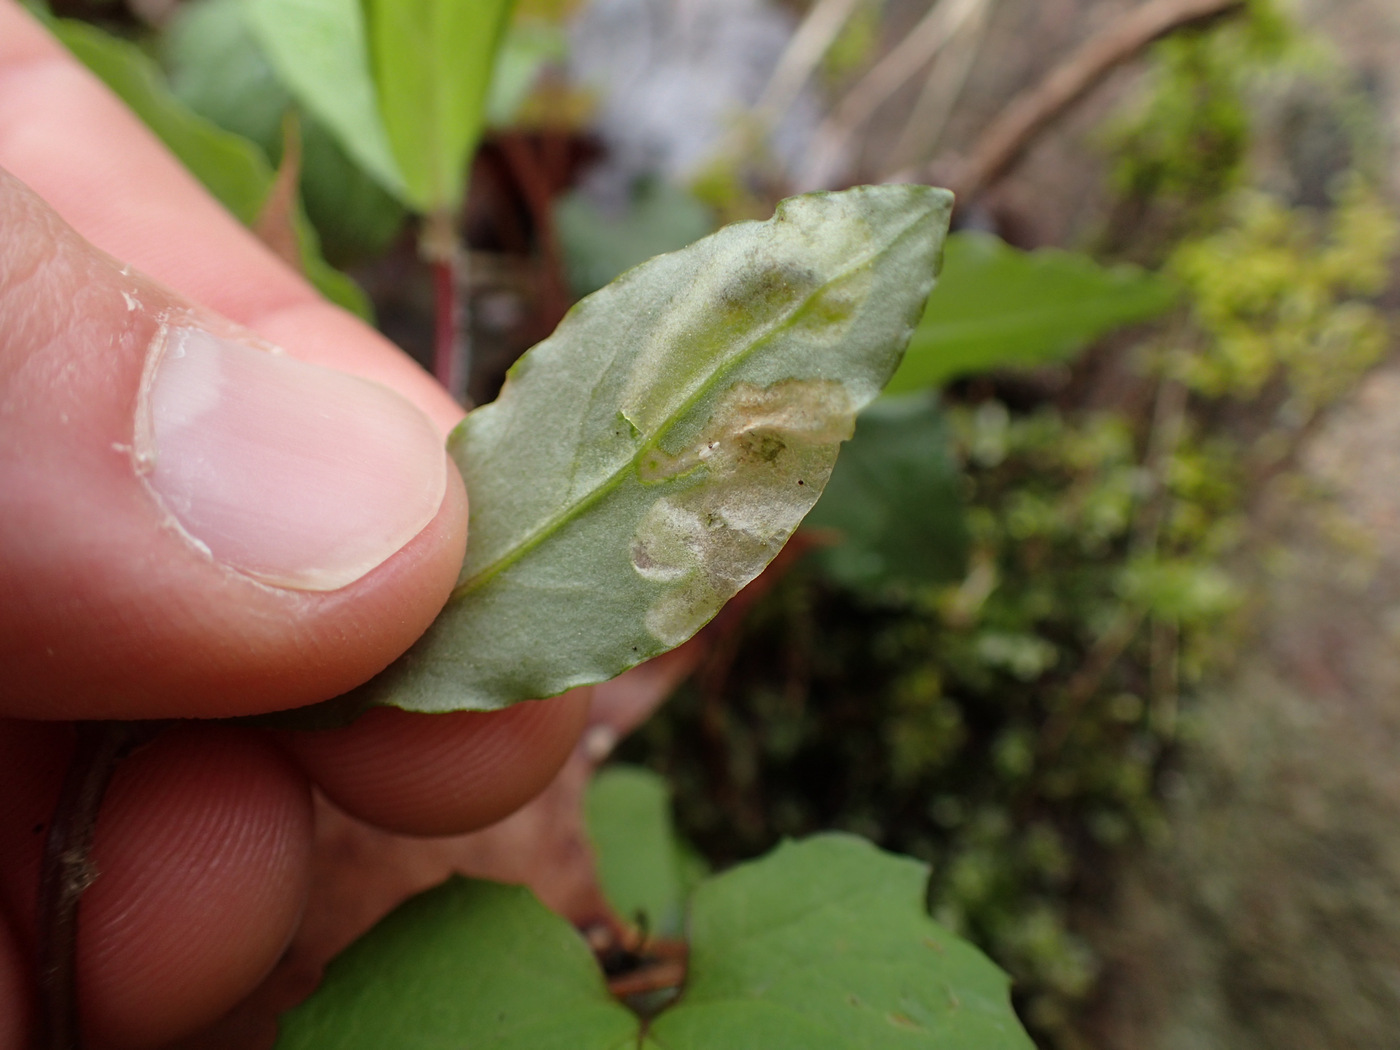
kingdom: Animalia
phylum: Arthropoda
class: Insecta
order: Diptera
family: Anthomyiidae
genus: Pegomya
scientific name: Pegomya flavifrons
